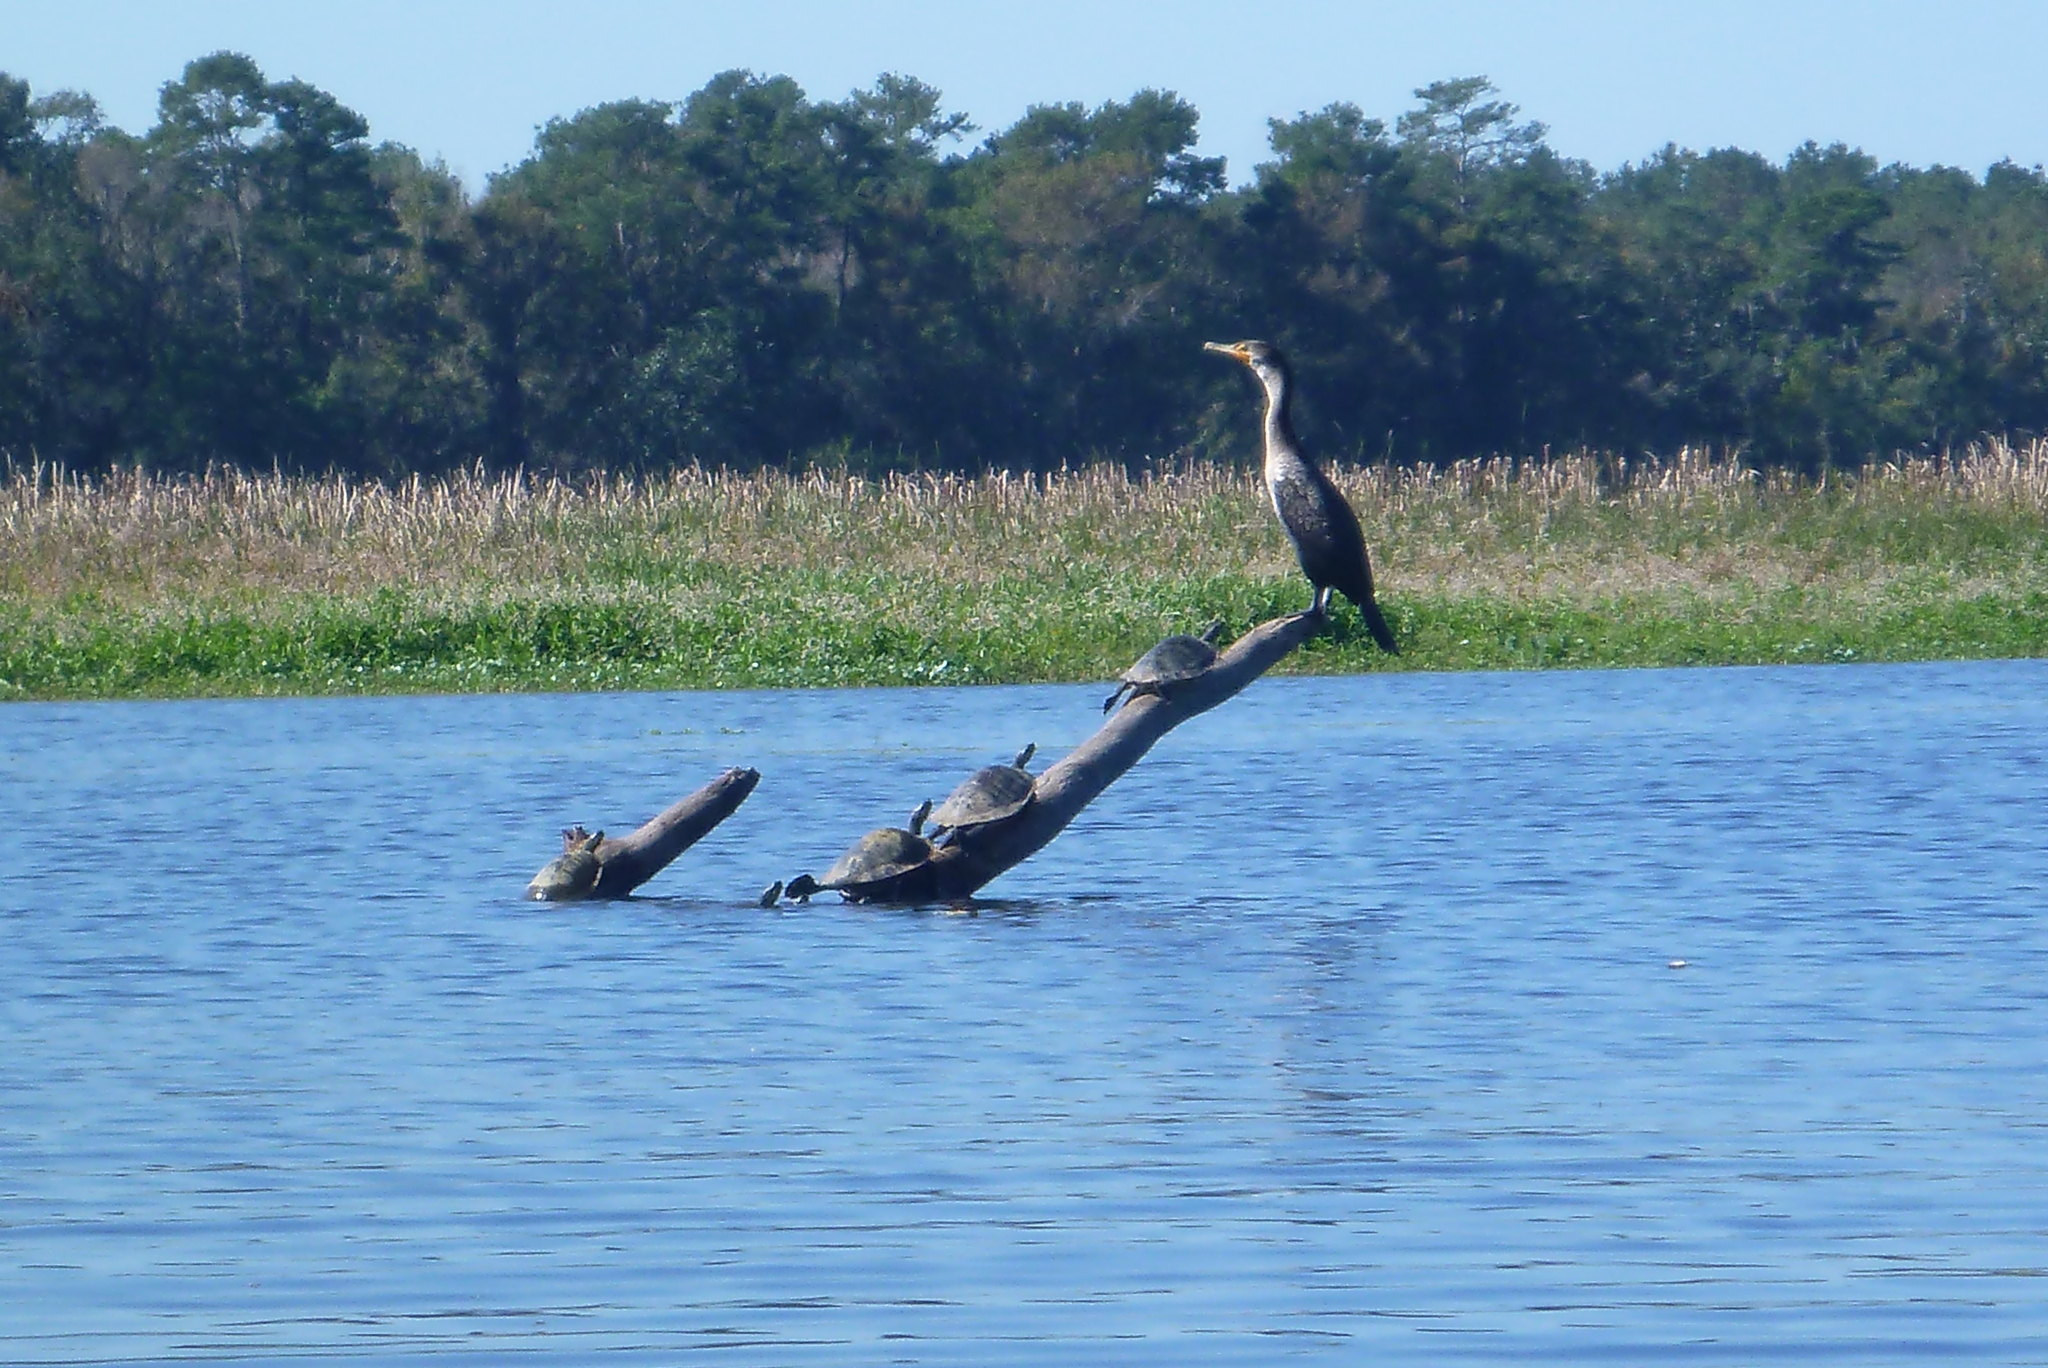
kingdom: Animalia
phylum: Chordata
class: Aves
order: Suliformes
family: Phalacrocoracidae
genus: Phalacrocorax
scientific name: Phalacrocorax auritus
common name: Double-crested cormorant
